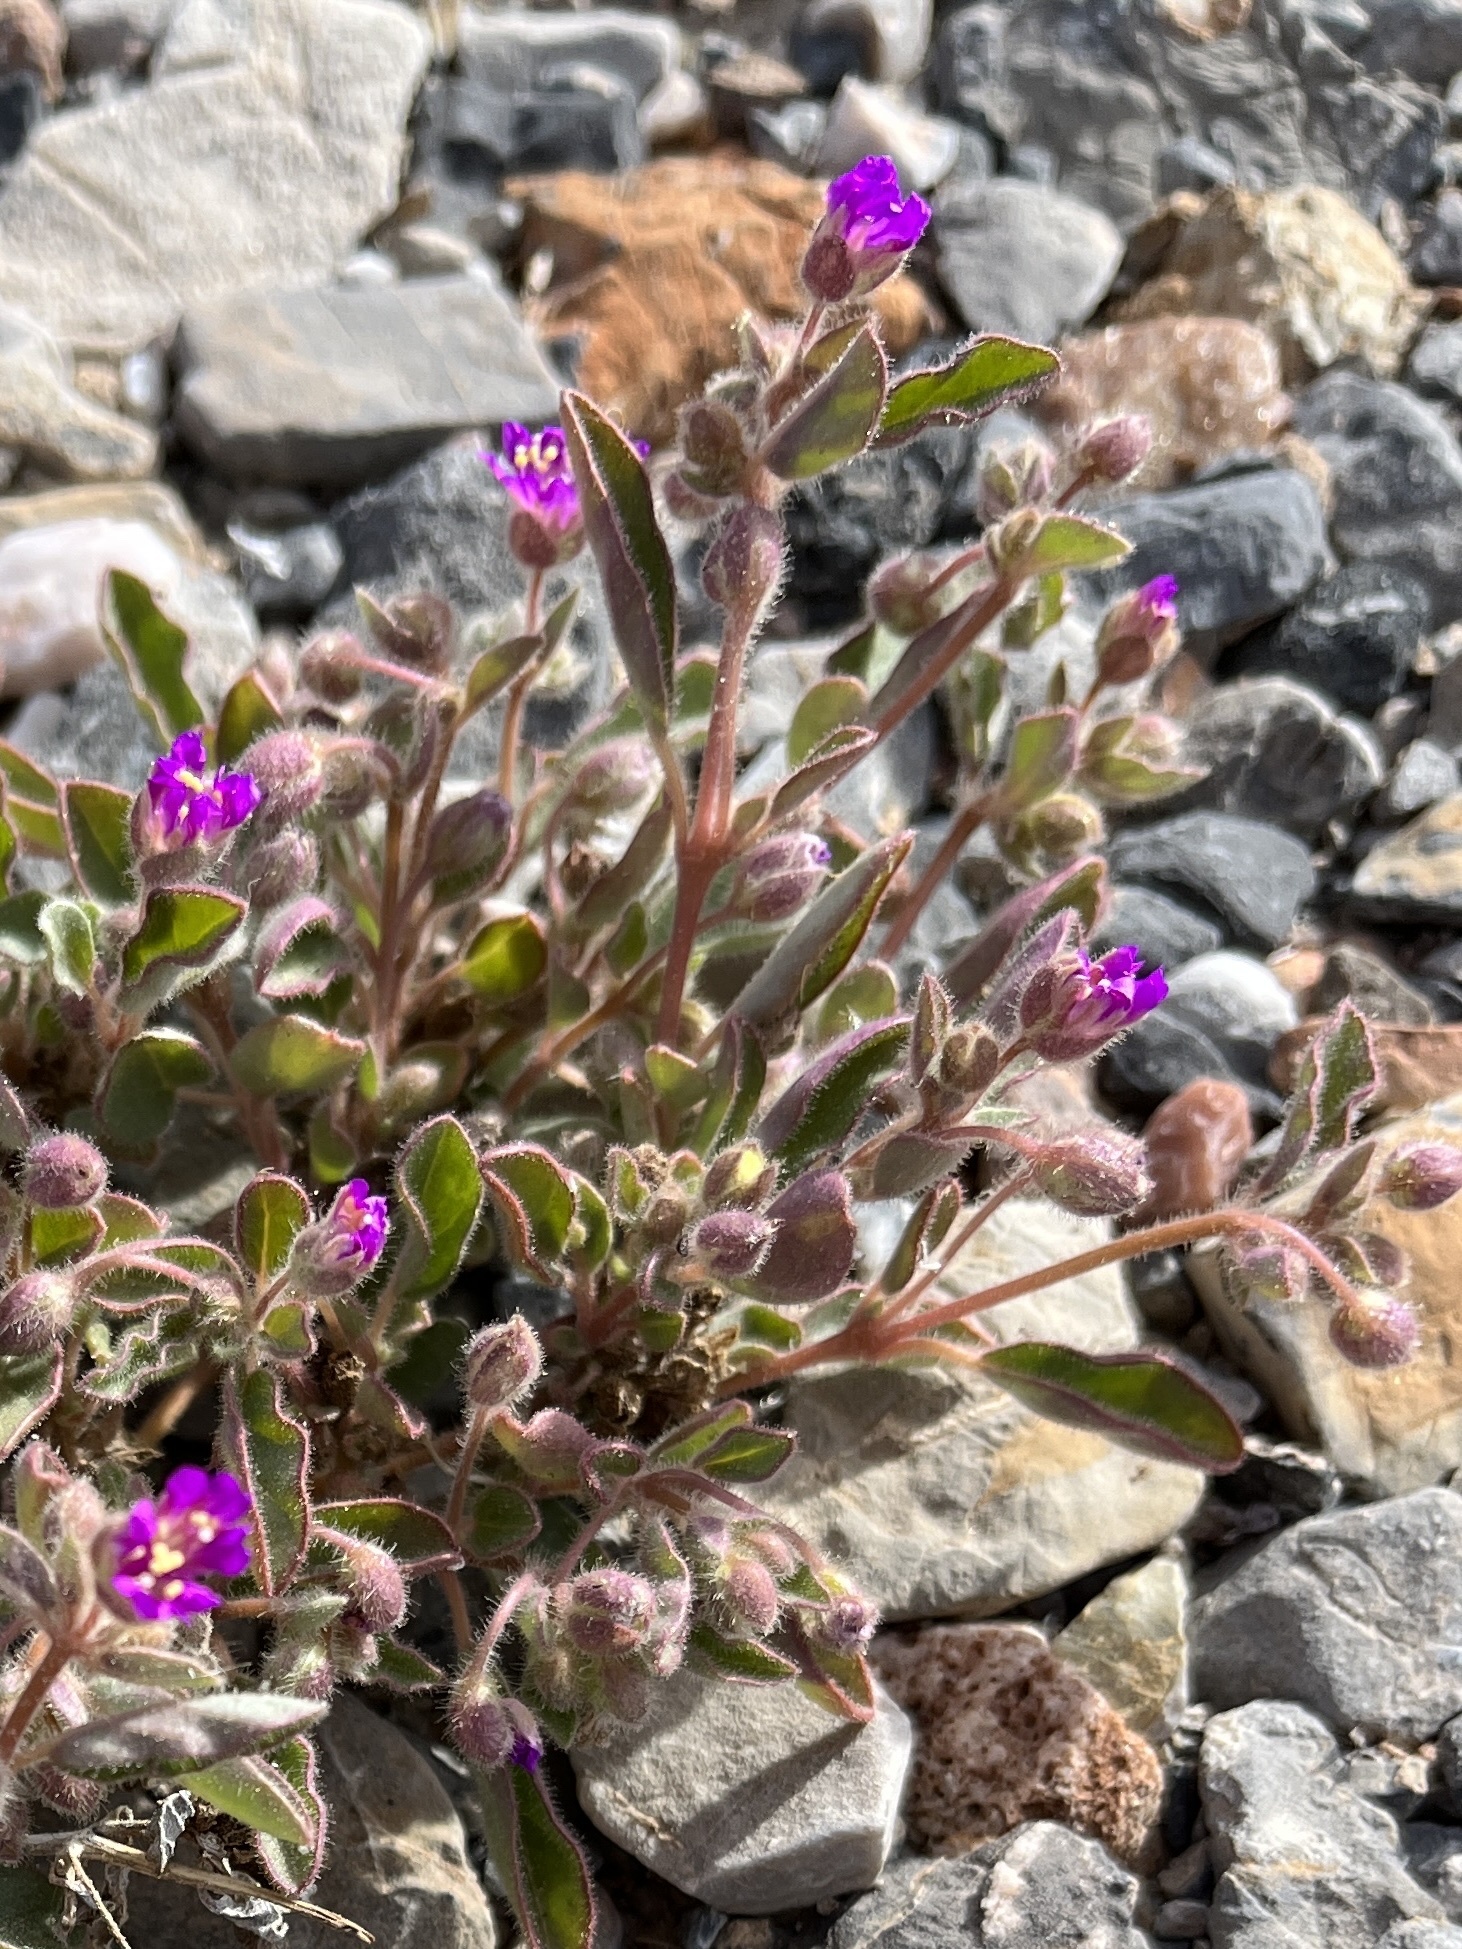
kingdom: Plantae
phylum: Tracheophyta
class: Magnoliopsida
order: Caryophyllales
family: Nyctaginaceae
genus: Allionia
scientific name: Allionia incarnata
